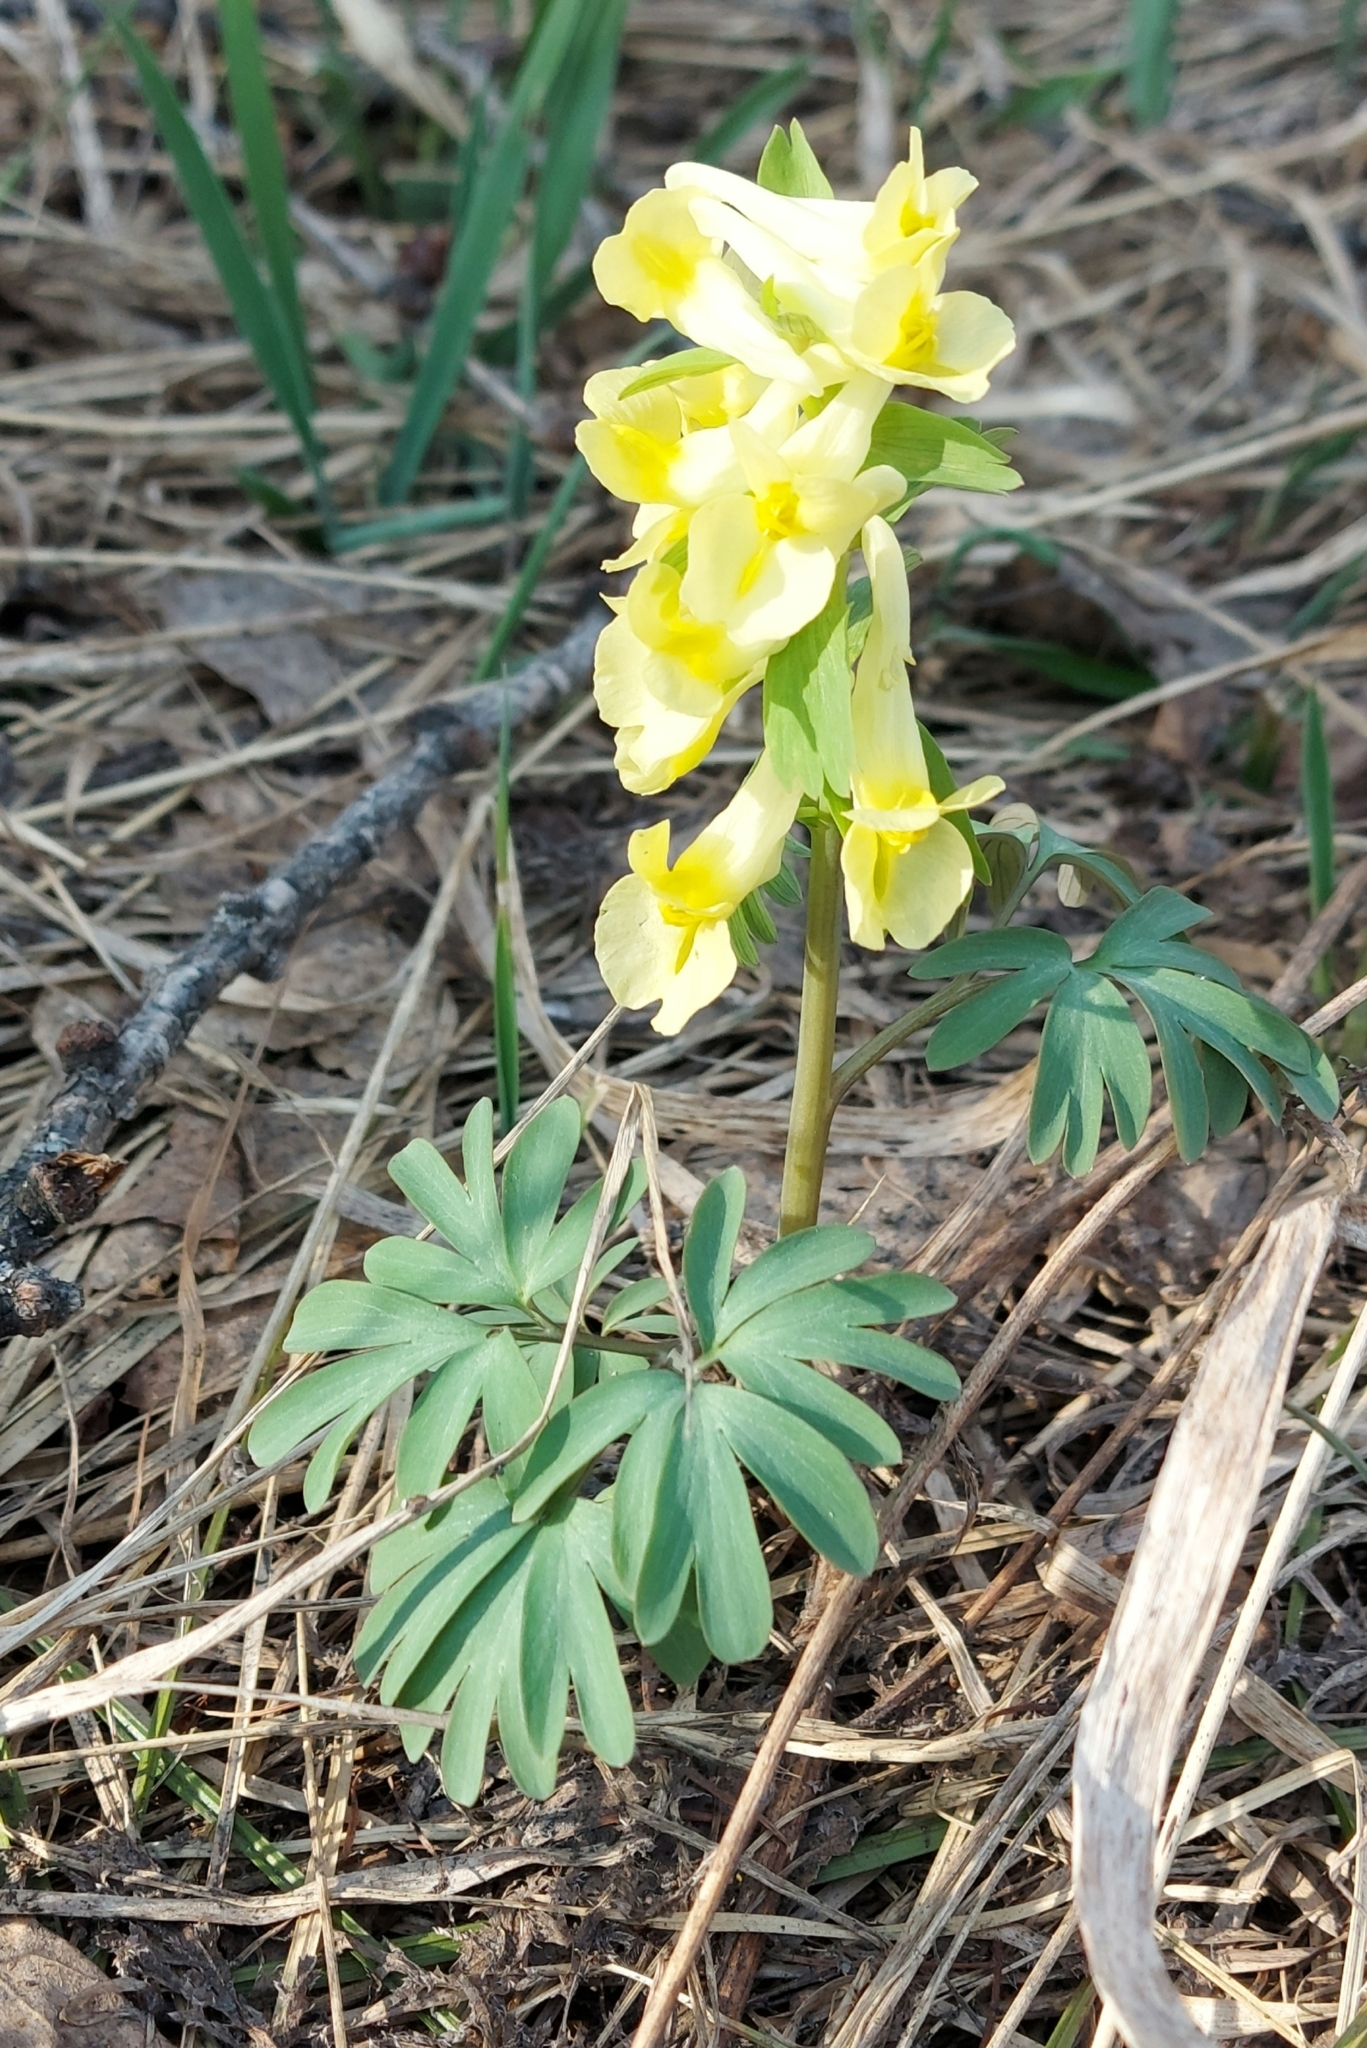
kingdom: Plantae
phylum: Tracheophyta
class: Magnoliopsida
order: Ranunculales
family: Papaveraceae
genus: Corydalis
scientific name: Corydalis bracteata
